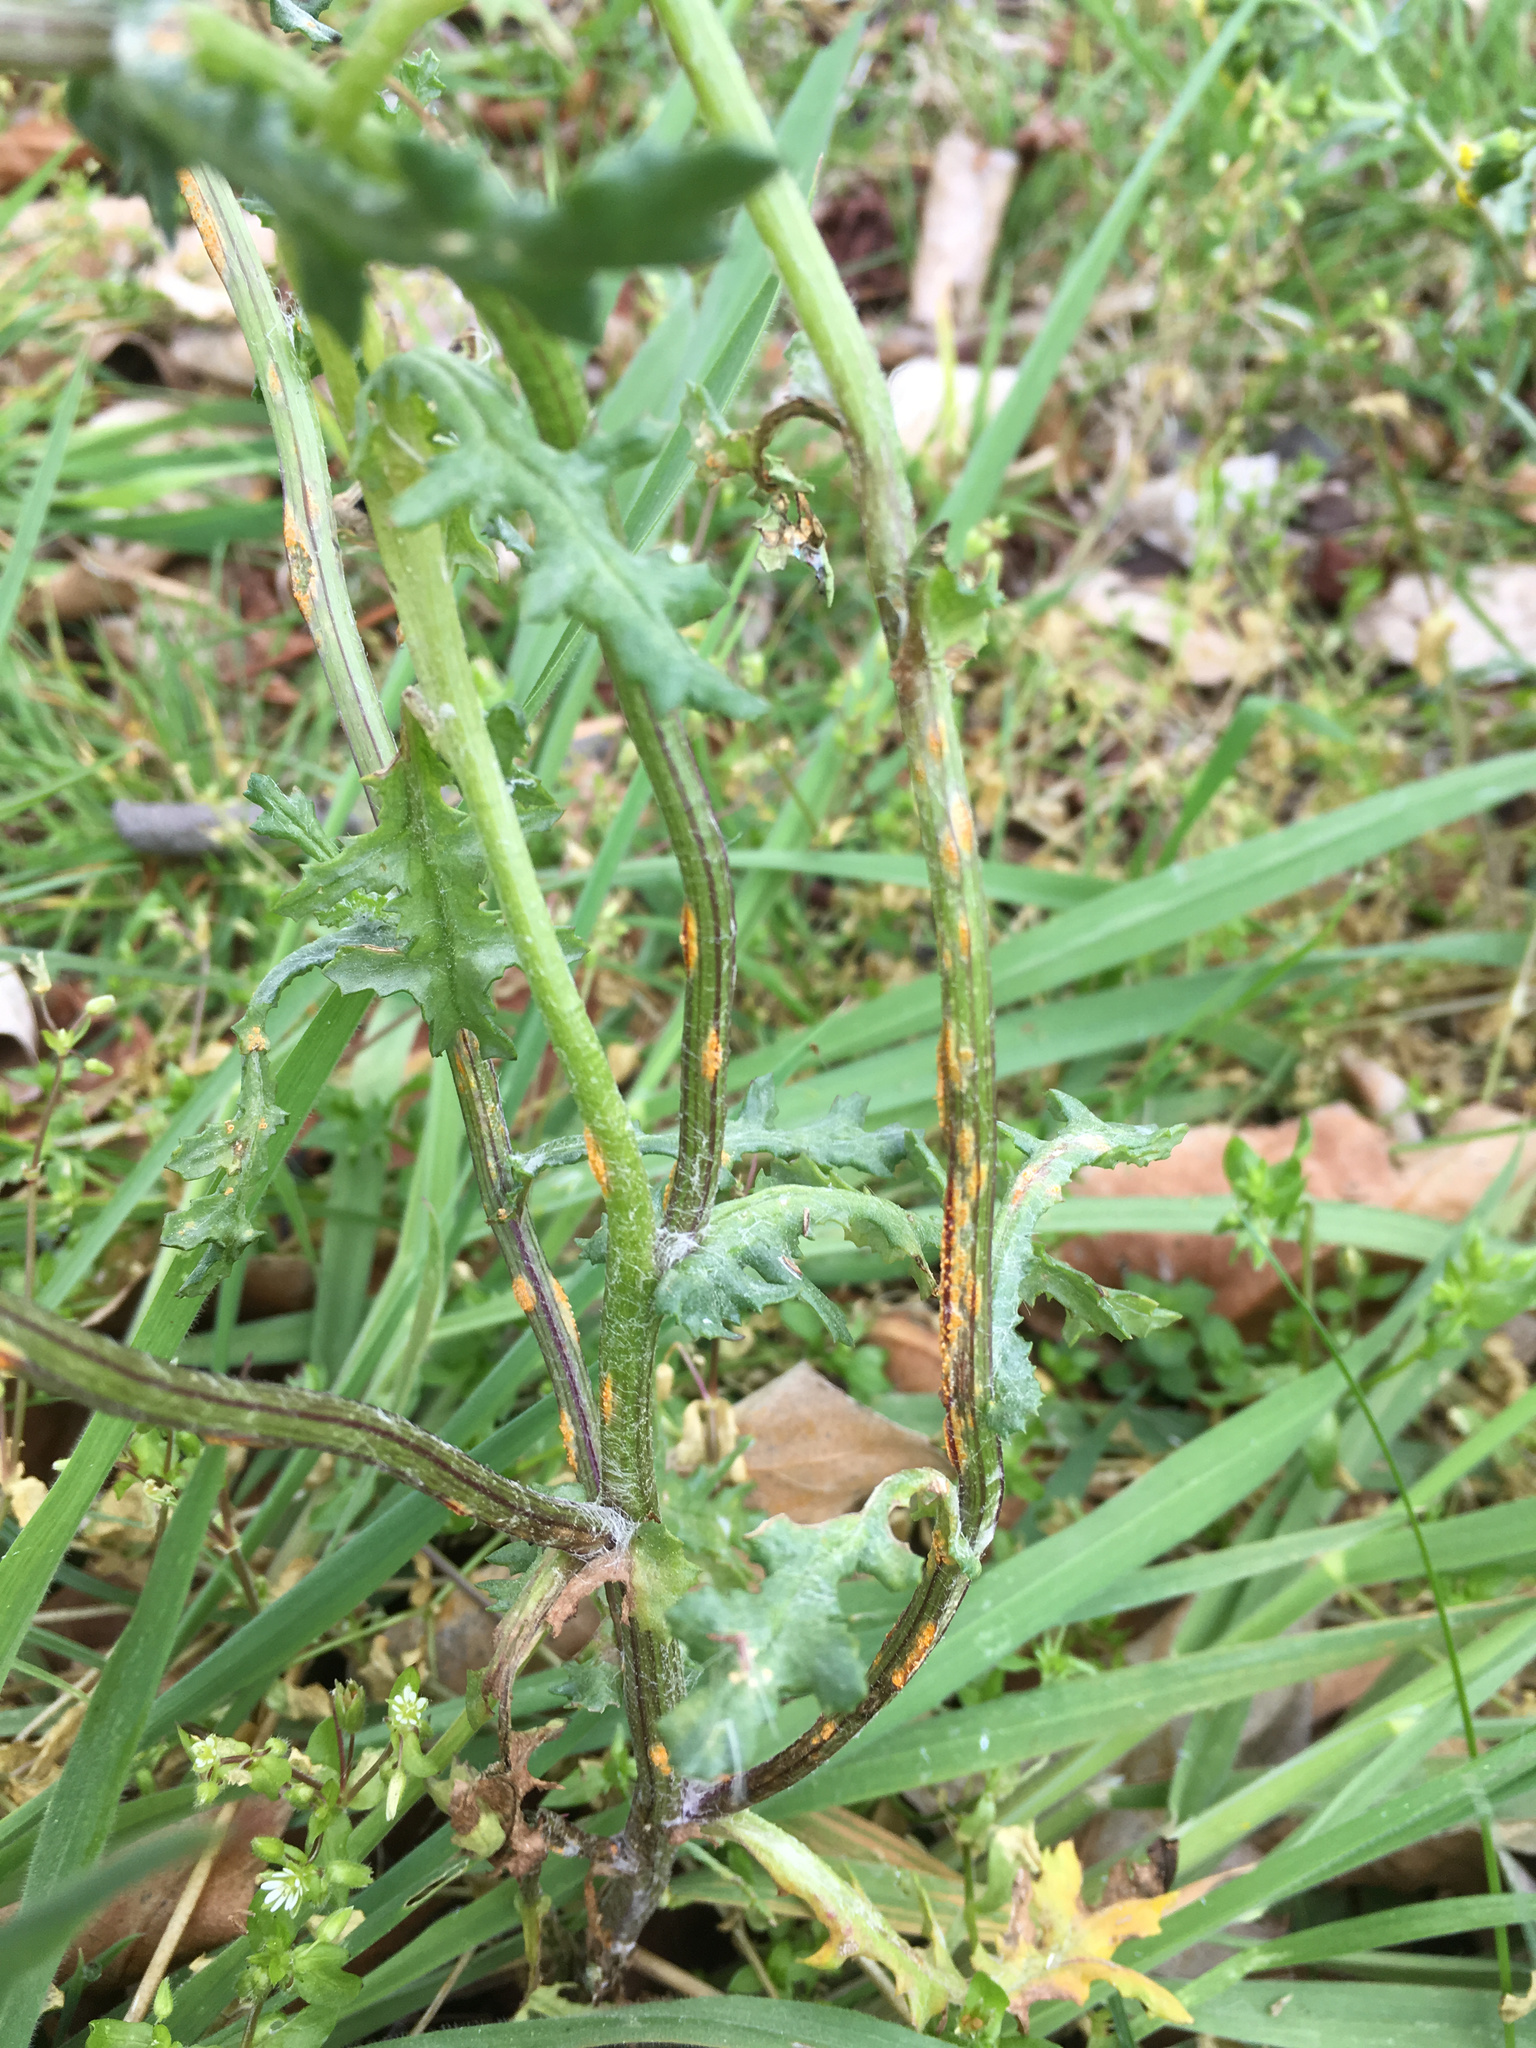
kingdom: Fungi
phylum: Basidiomycota
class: Pucciniomycetes
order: Pucciniales
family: Pucciniaceae
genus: Puccinia
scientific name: Puccinia lagenophorae
